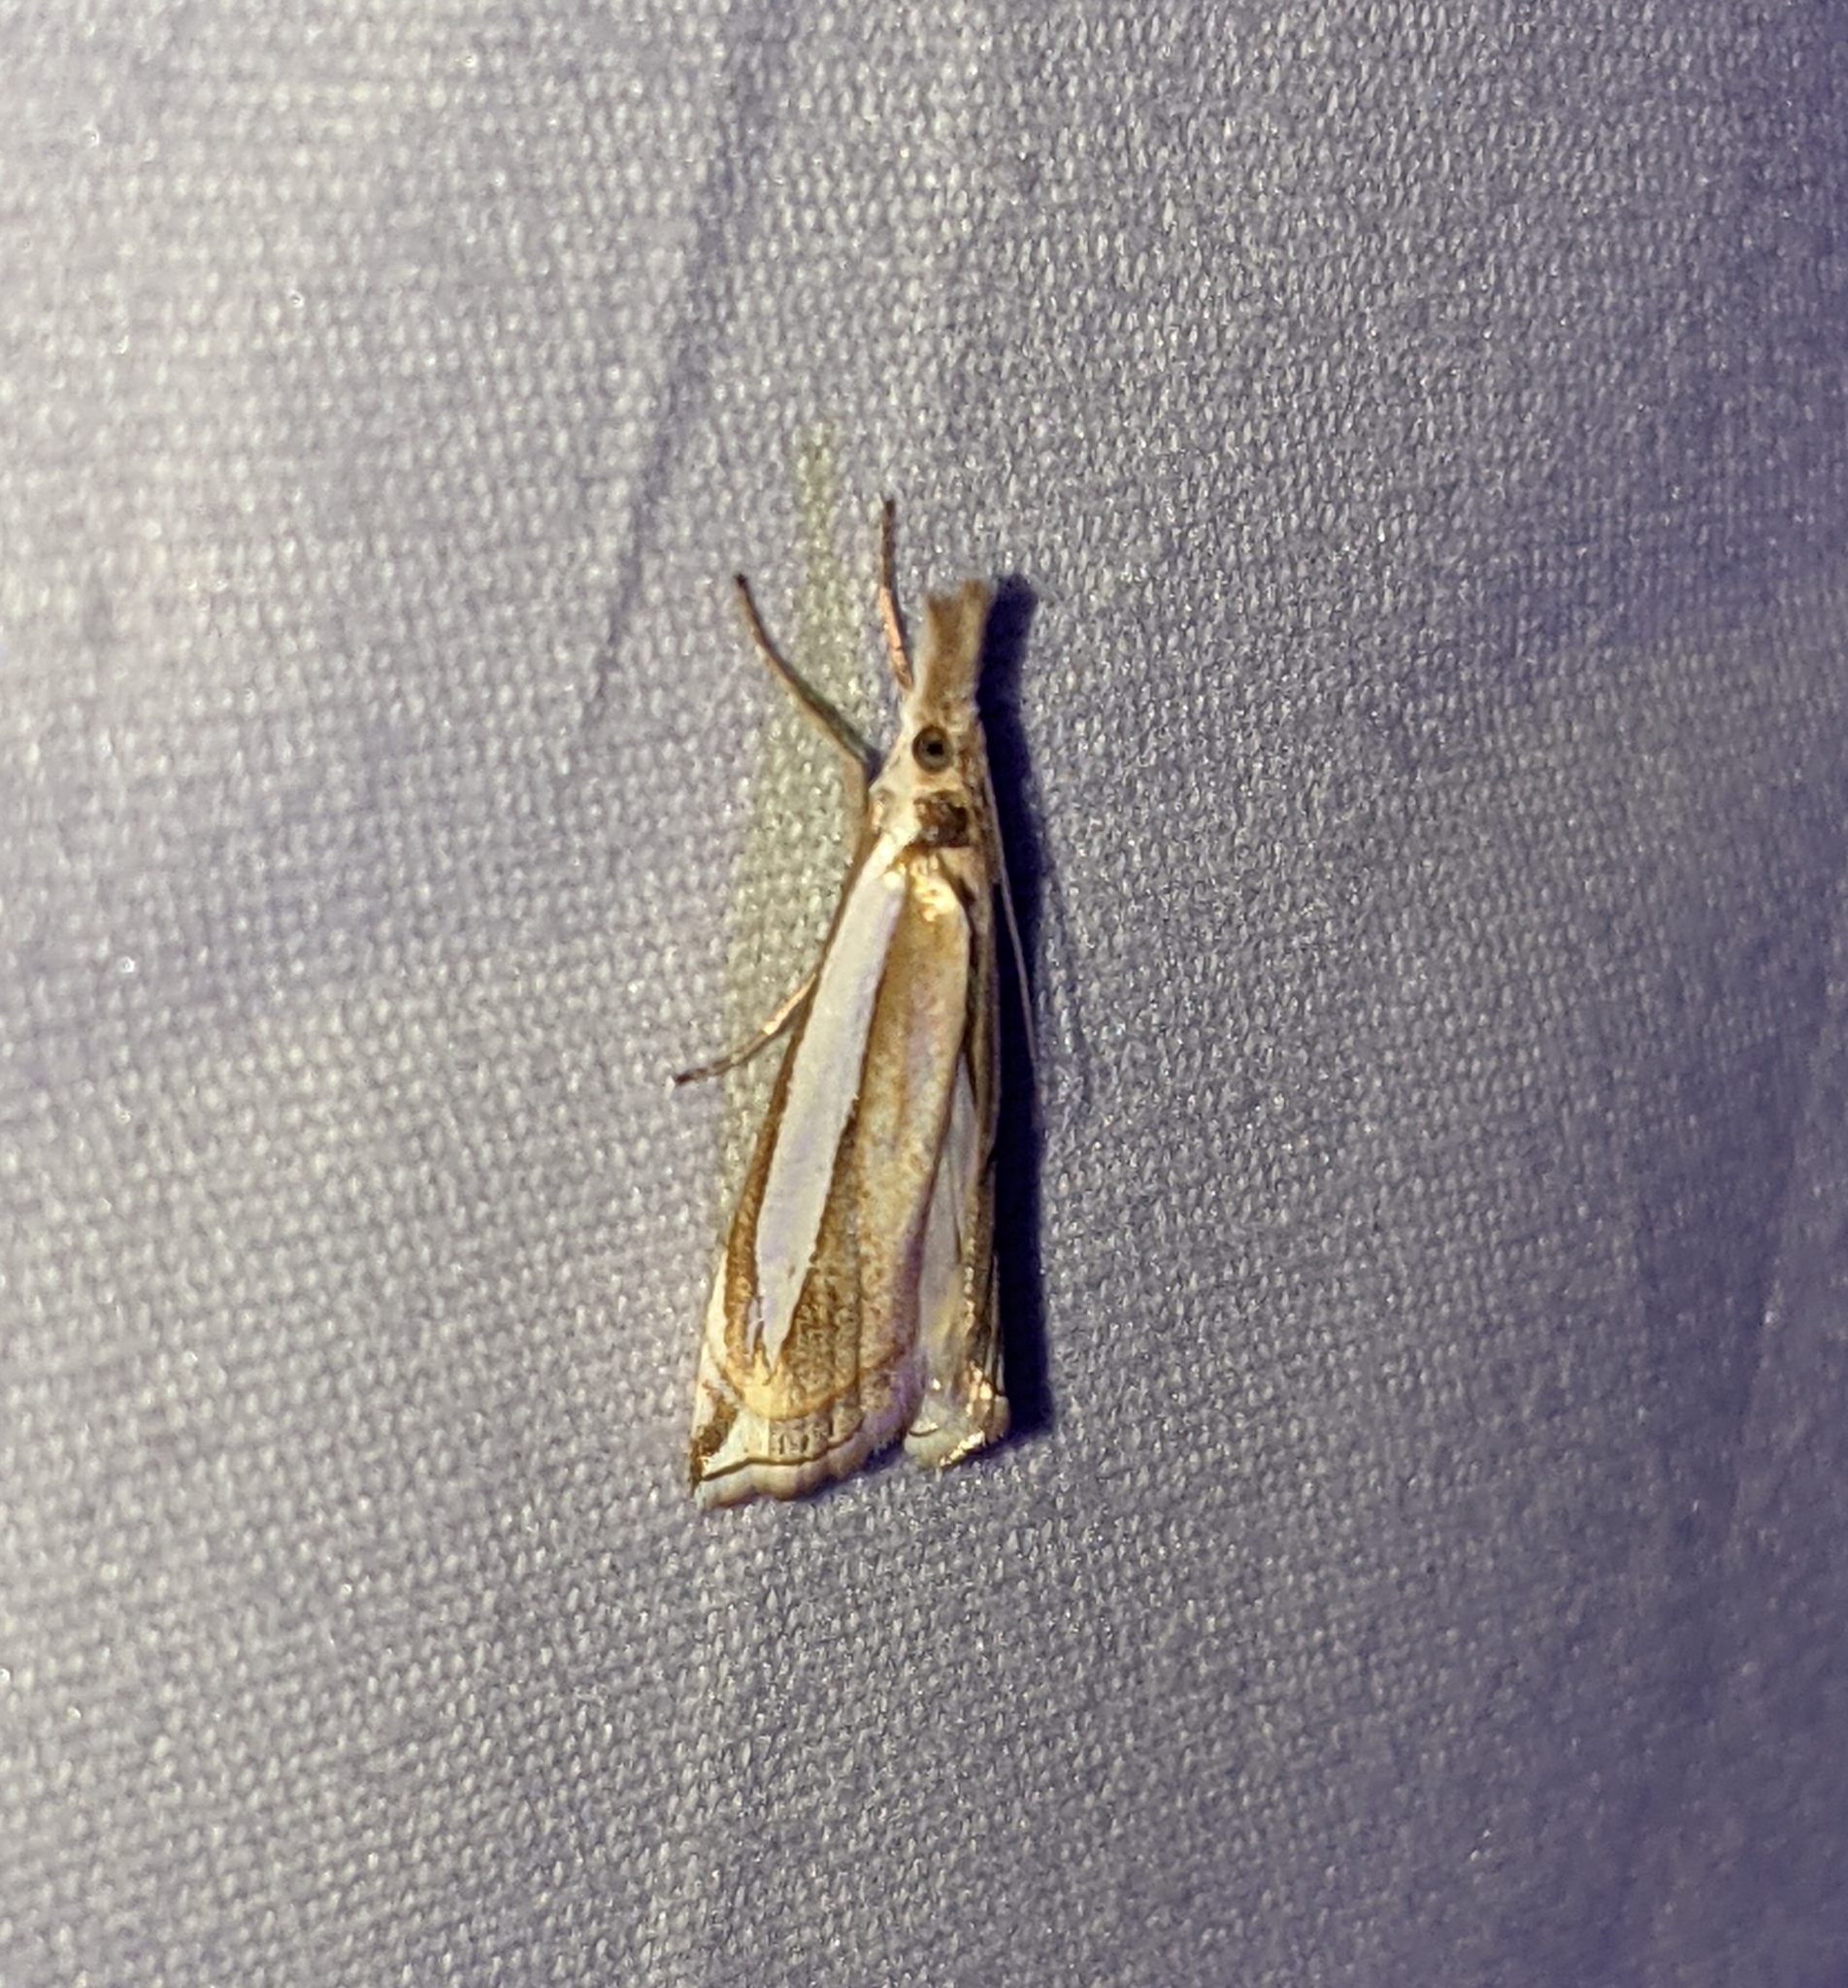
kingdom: Animalia
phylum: Arthropoda
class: Insecta
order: Lepidoptera
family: Crambidae
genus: Crambus
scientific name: Crambus leachellus
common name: Leach's grass-veneer
